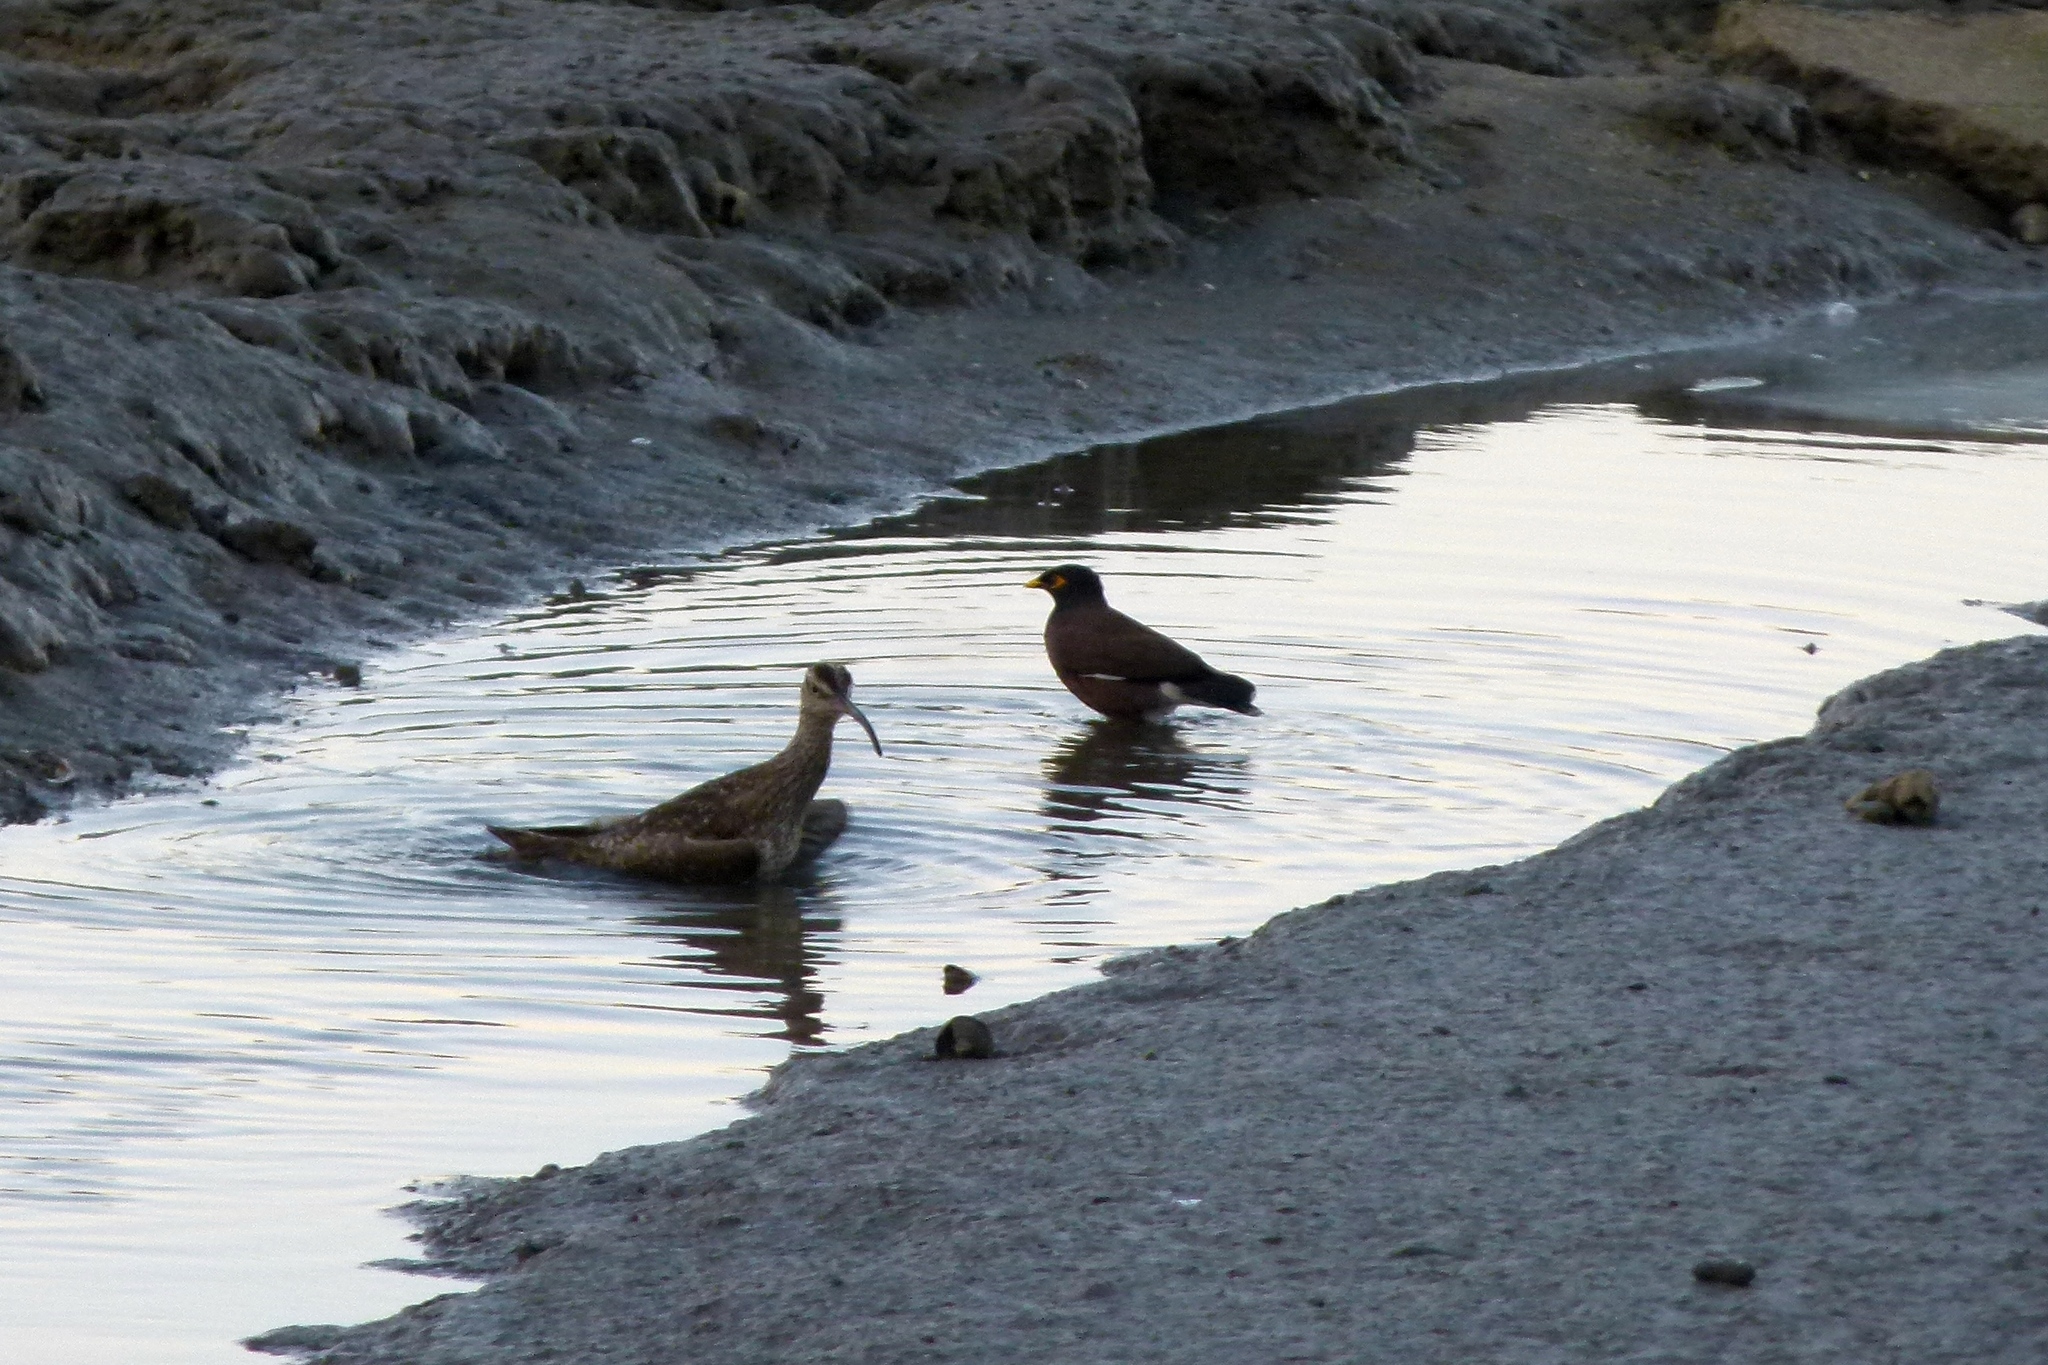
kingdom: Animalia
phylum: Chordata
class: Aves
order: Passeriformes
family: Sturnidae
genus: Acridotheres
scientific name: Acridotheres tristis
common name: Common myna
